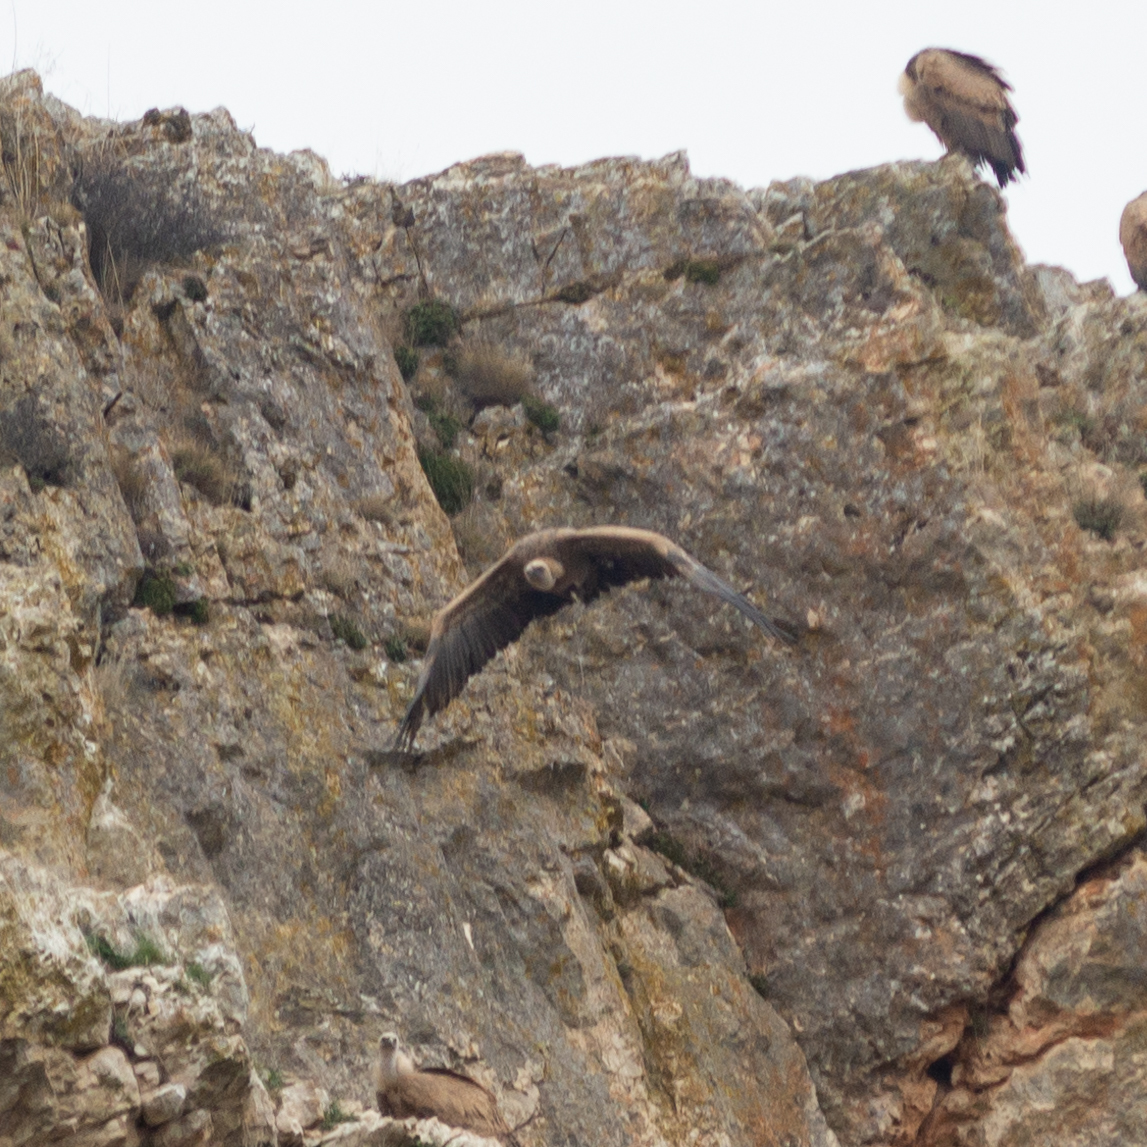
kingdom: Animalia
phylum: Chordata
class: Aves
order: Accipitriformes
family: Accipitridae
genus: Gyps
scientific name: Gyps fulvus
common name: Griffon vulture
